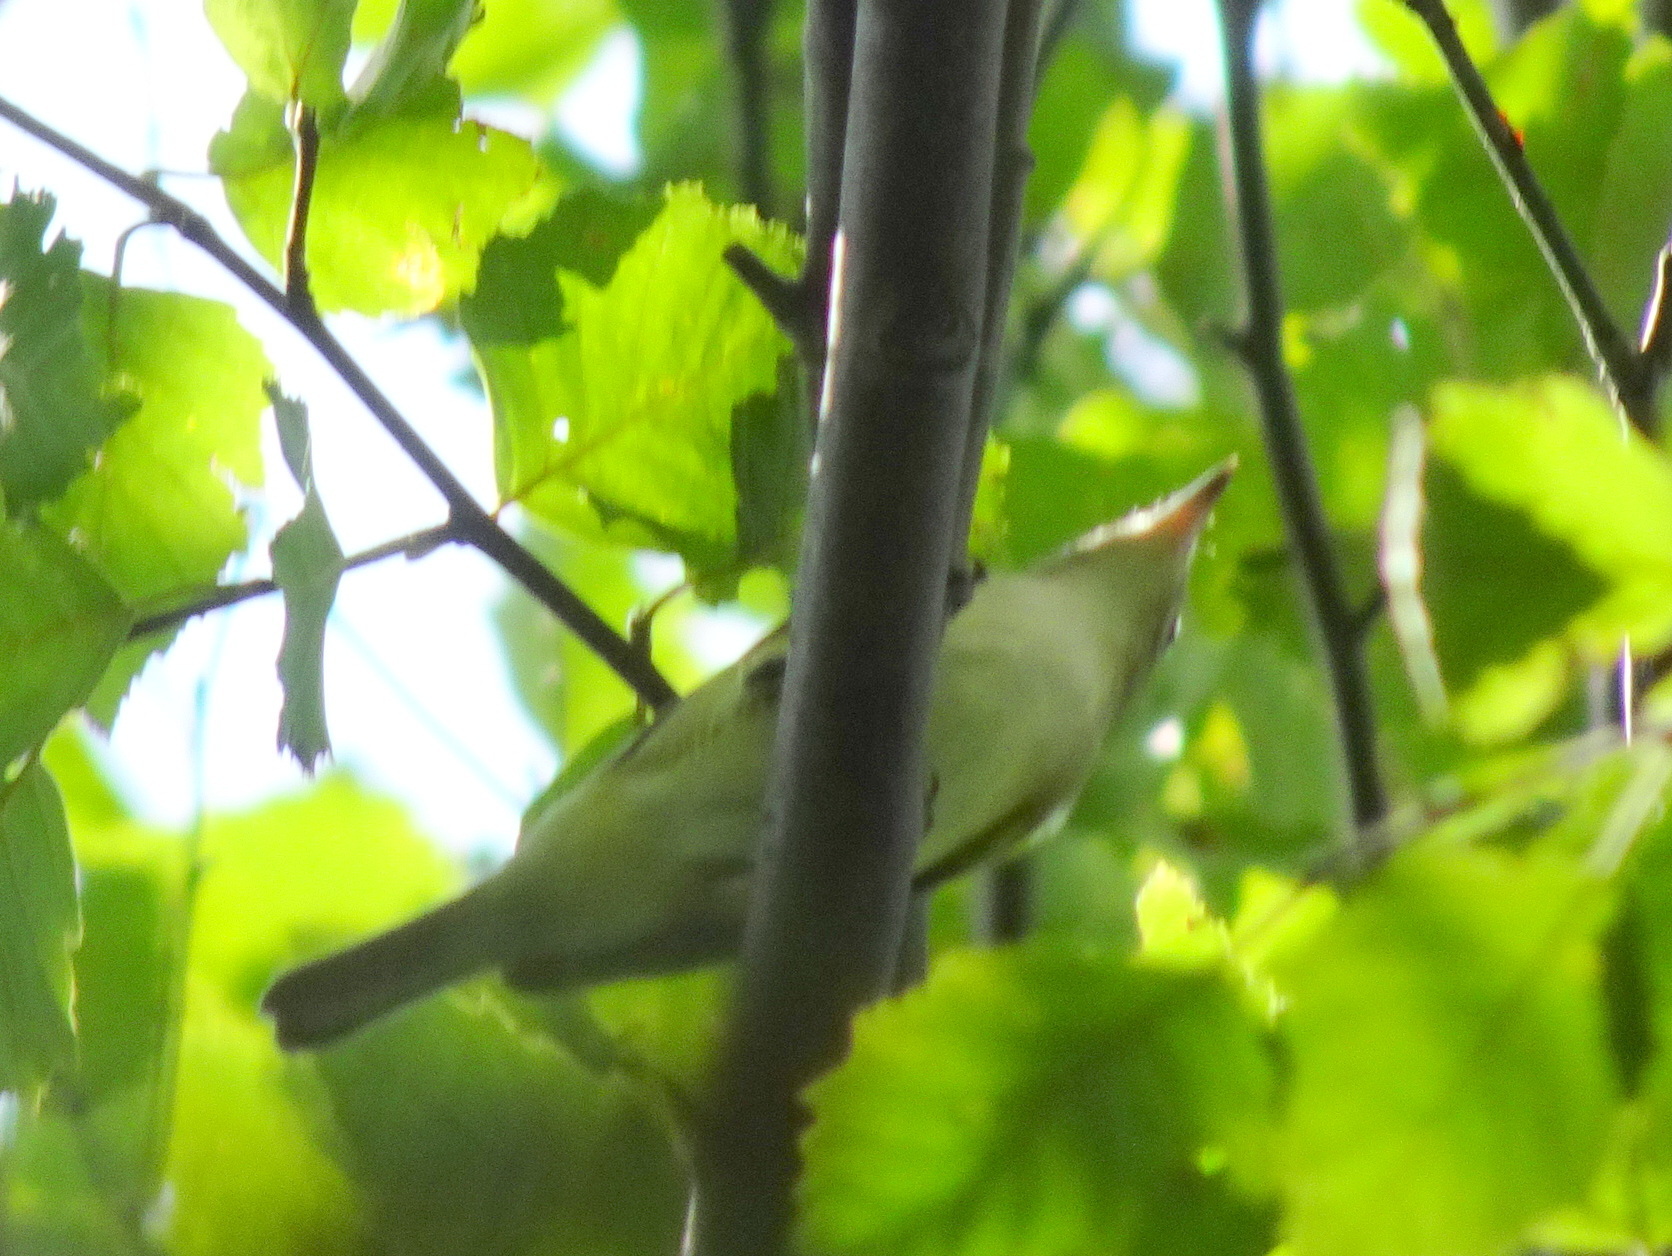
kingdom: Animalia
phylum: Chordata
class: Aves
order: Passeriformes
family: Vireonidae
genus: Vireo
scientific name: Vireo olivaceus
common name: Red-eyed vireo
